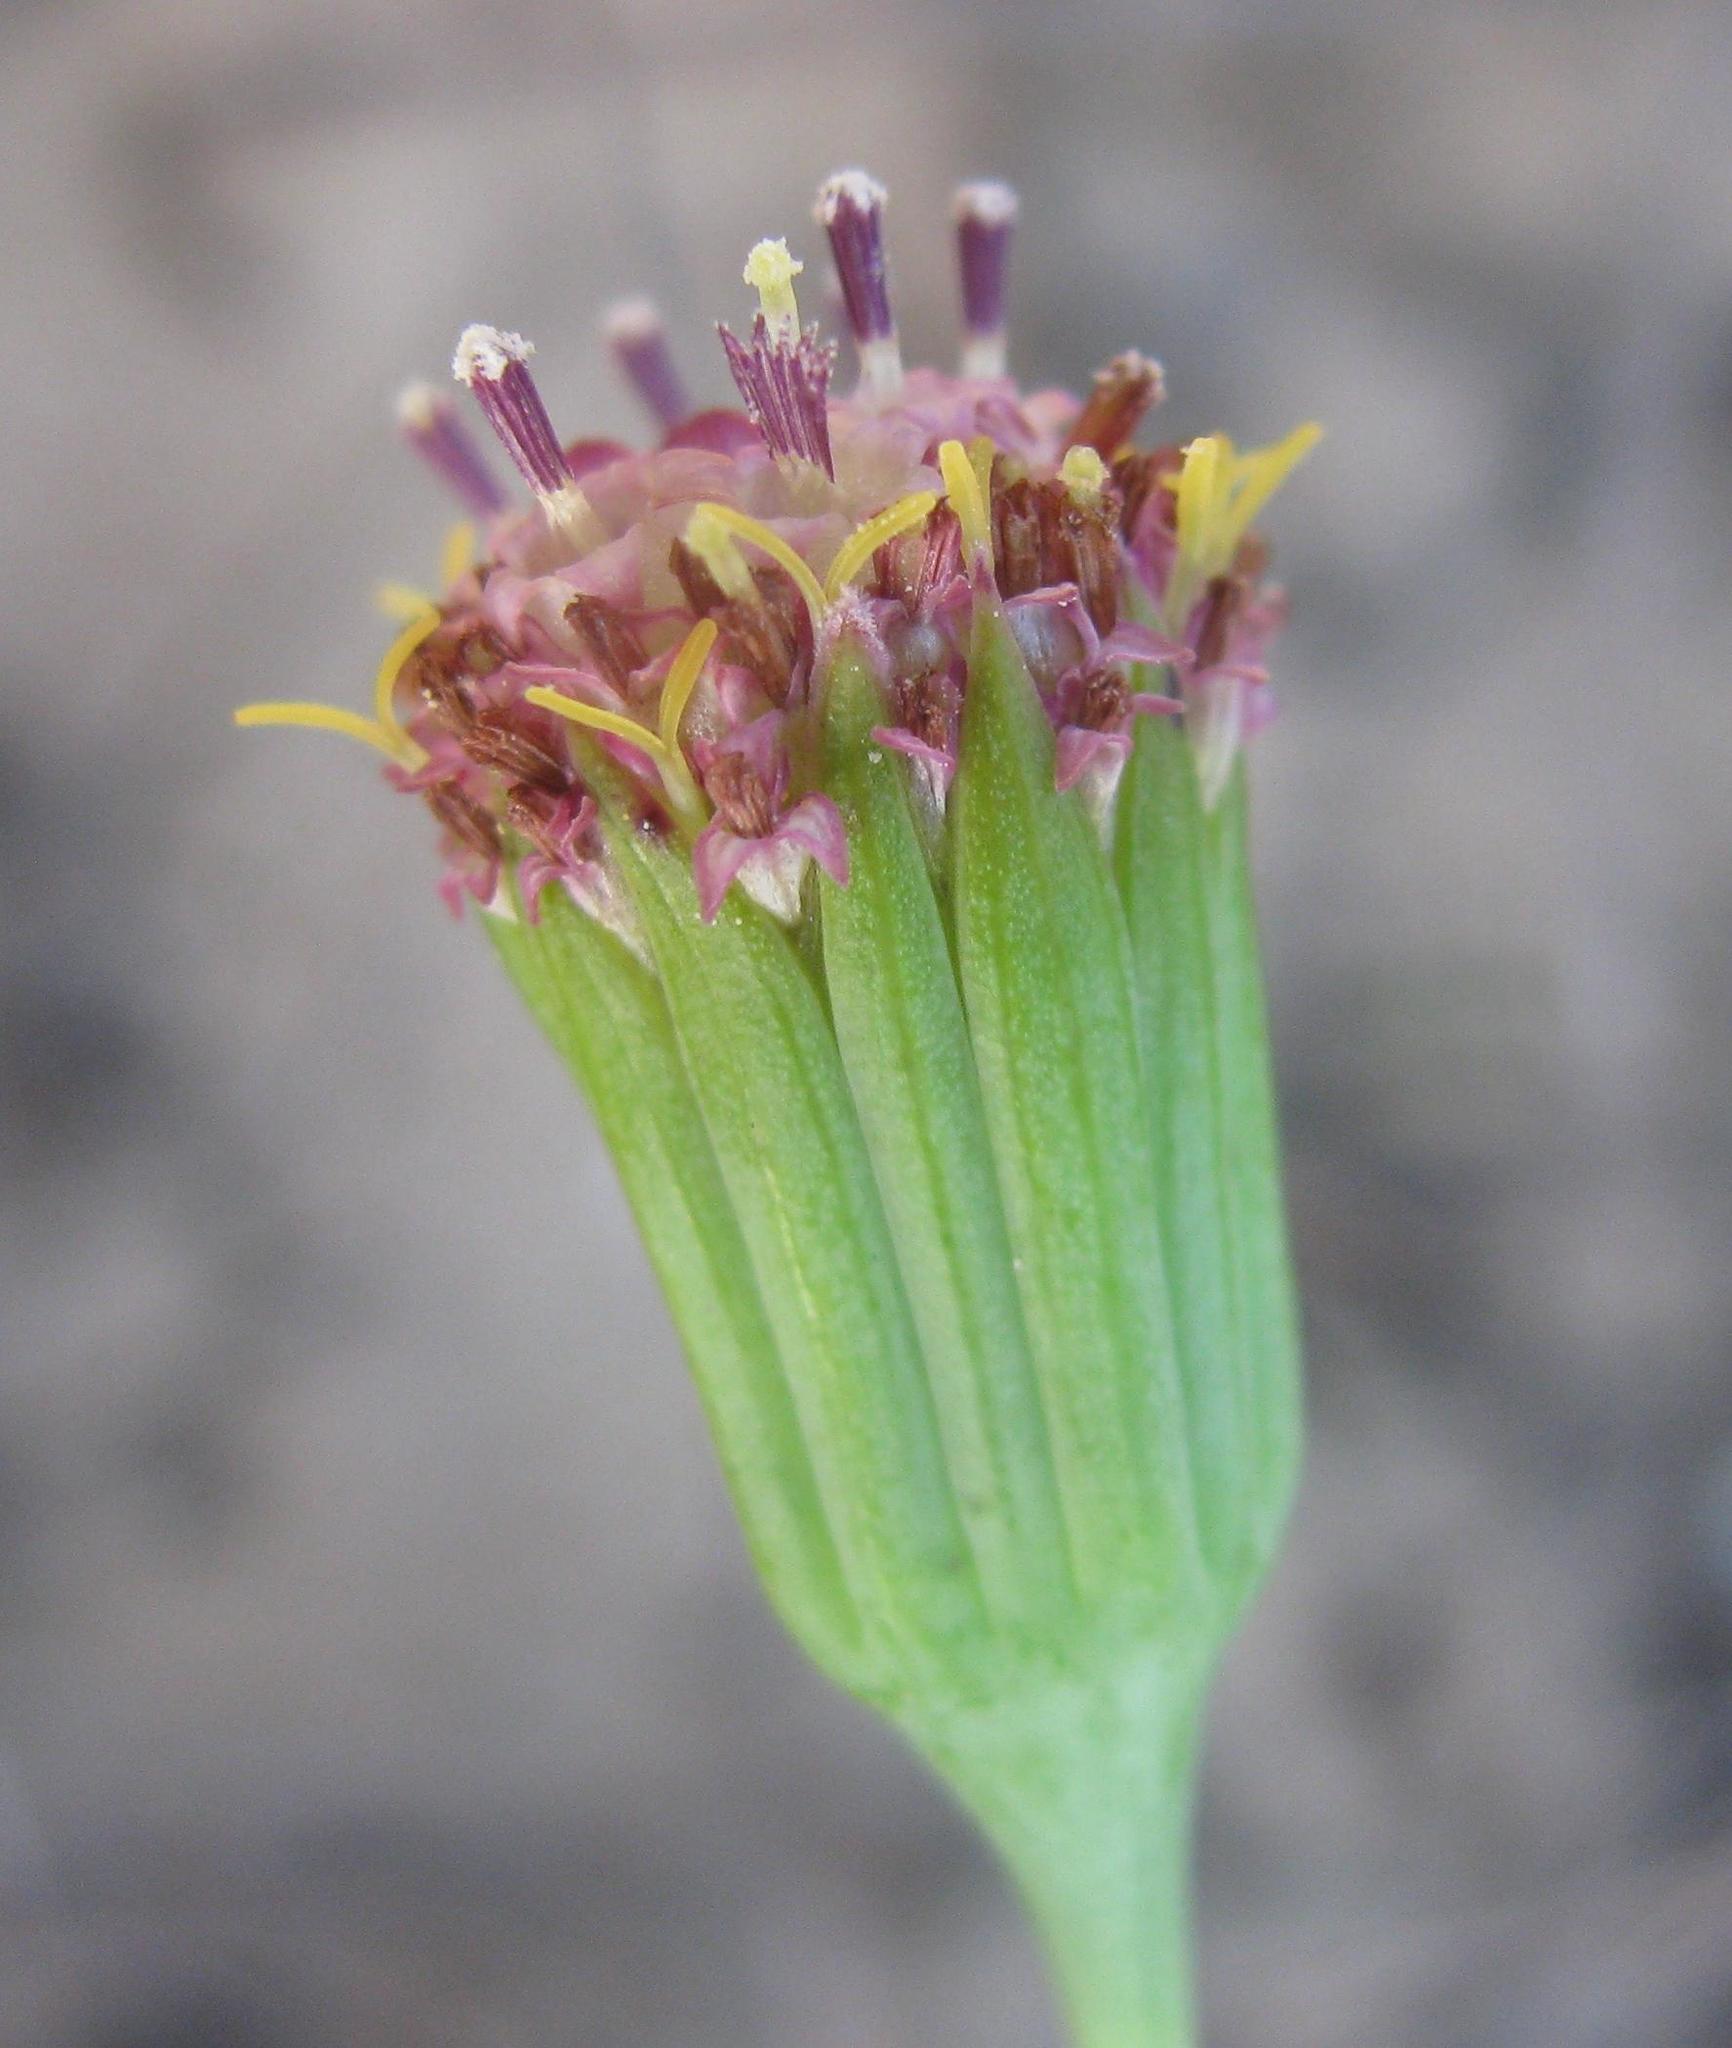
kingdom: Plantae
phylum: Tracheophyta
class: Magnoliopsida
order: Asterales
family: Asteraceae
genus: Othonna
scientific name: Othonna undulosa
